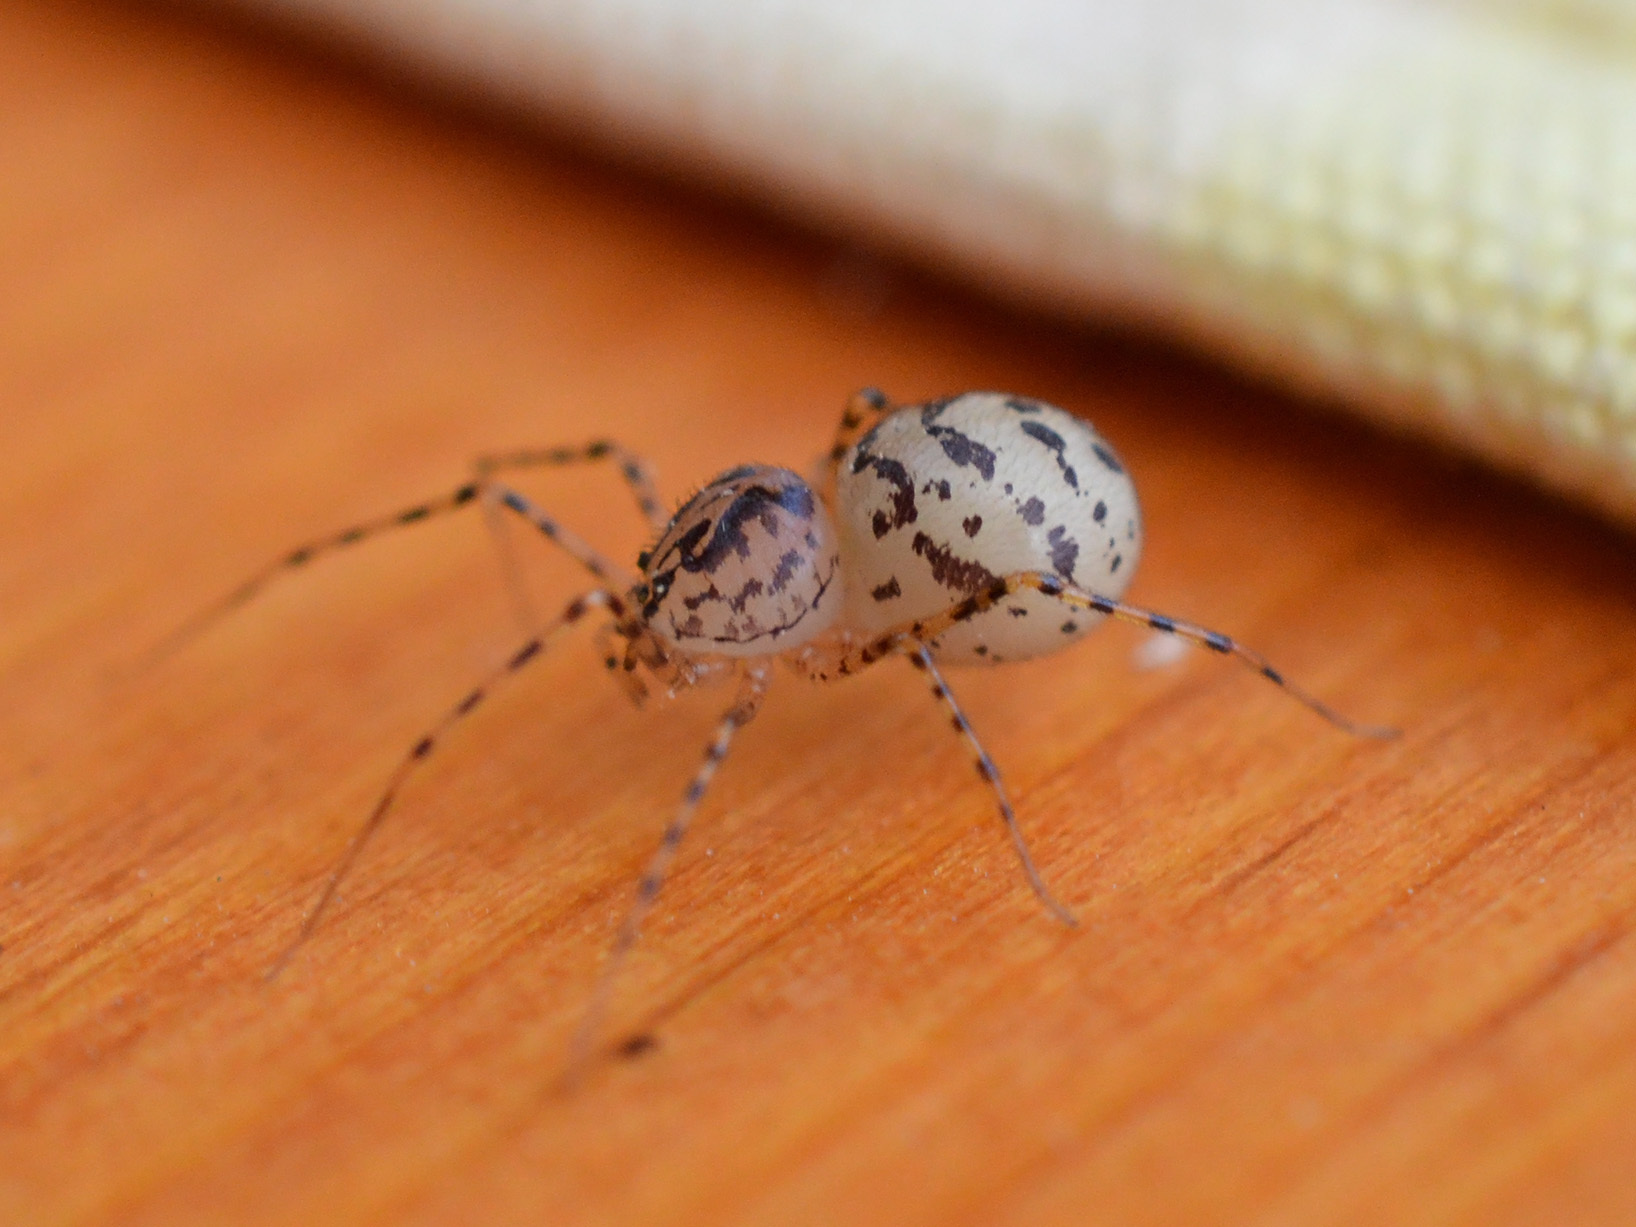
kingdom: Animalia
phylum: Arthropoda
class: Arachnida
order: Araneae
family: Scytodidae
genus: Scytodes
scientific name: Scytodes thoracica
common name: Spitting spider
